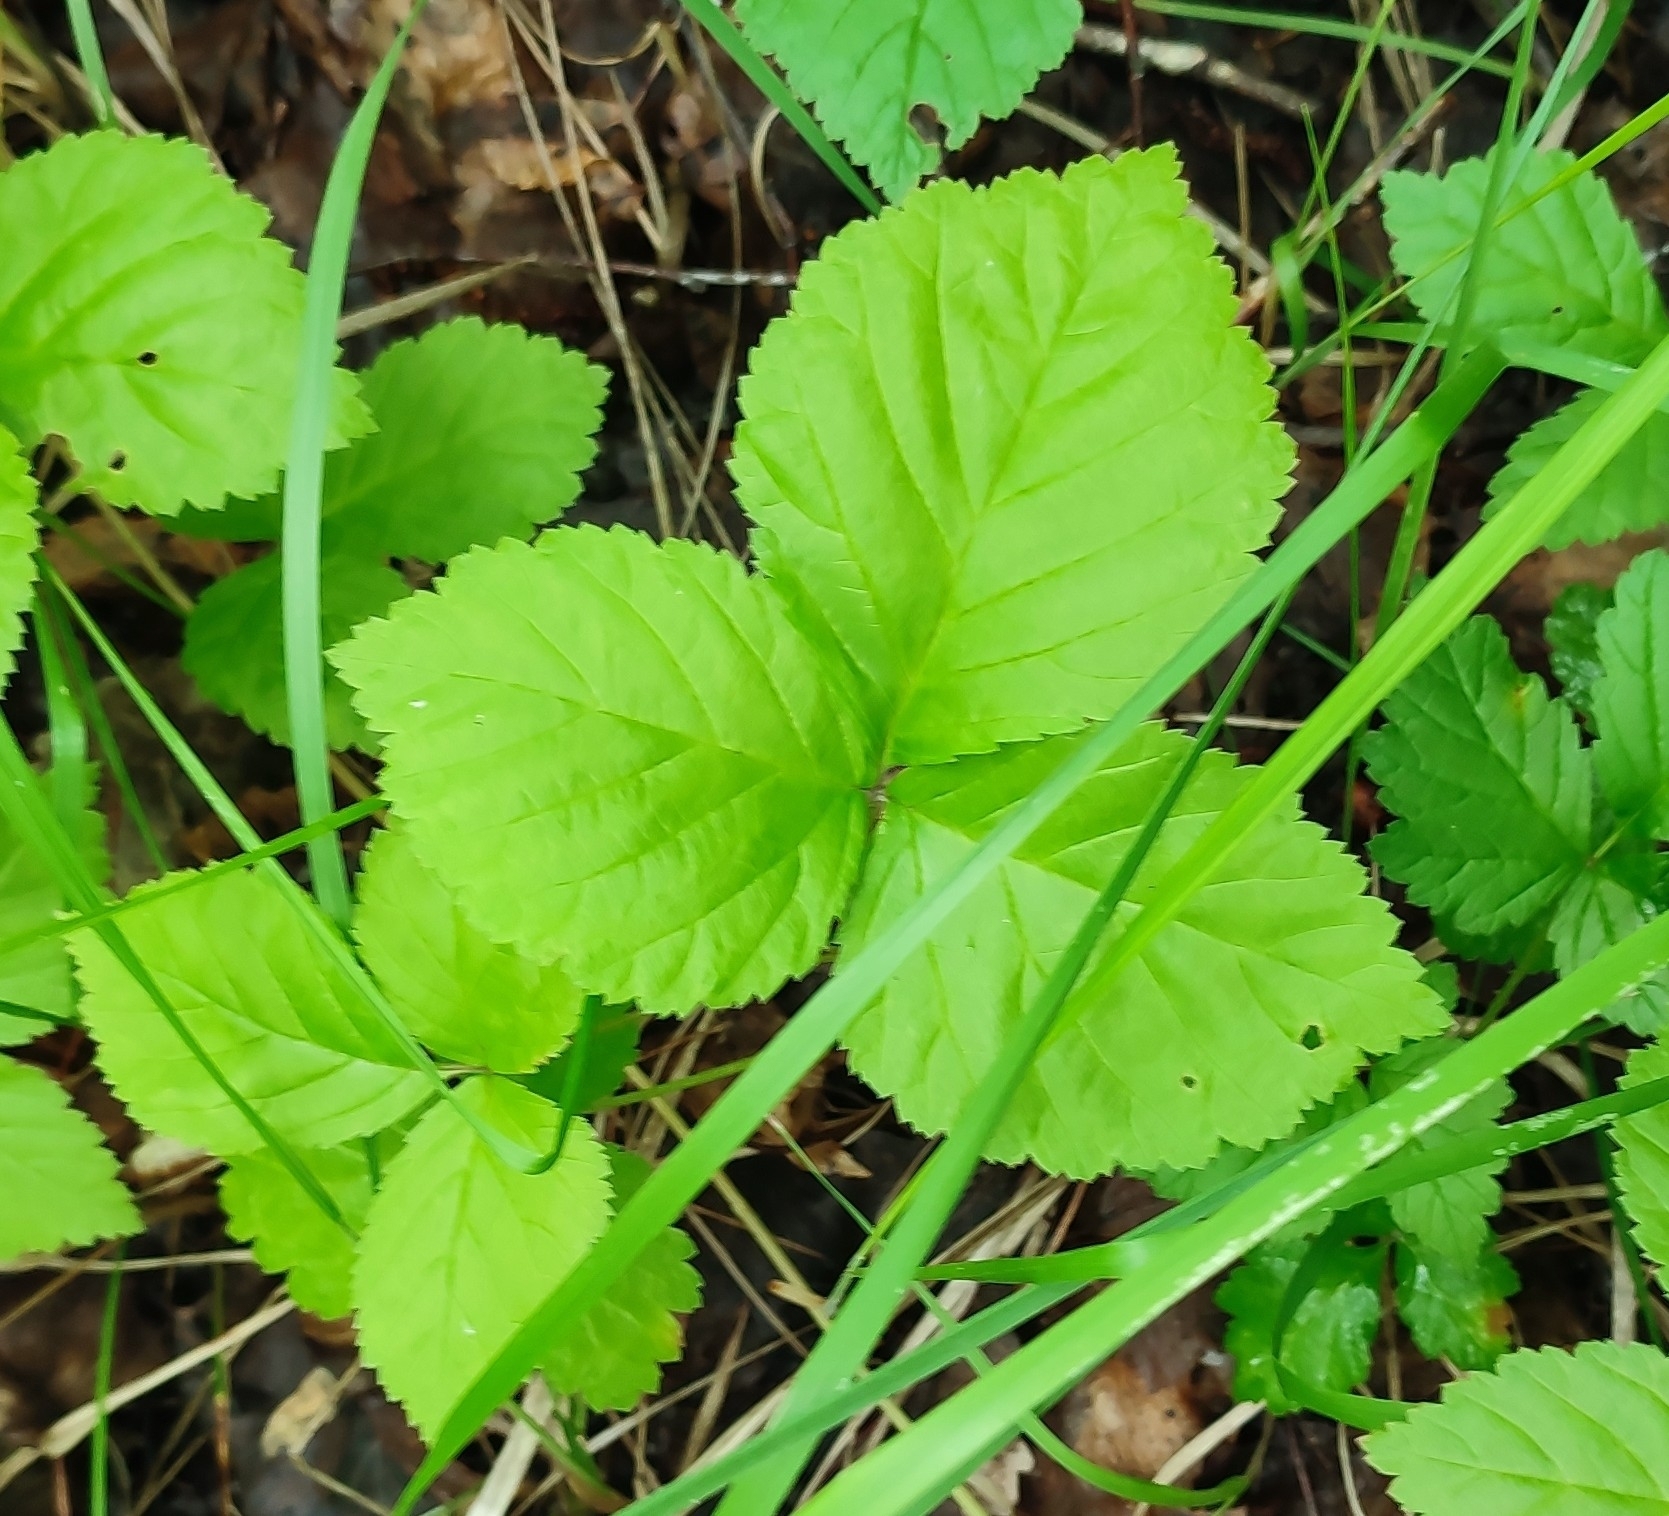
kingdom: Plantae
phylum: Tracheophyta
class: Magnoliopsida
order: Rosales
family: Rosaceae
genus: Rubus
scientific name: Rubus saxatilis
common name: Stone bramble
